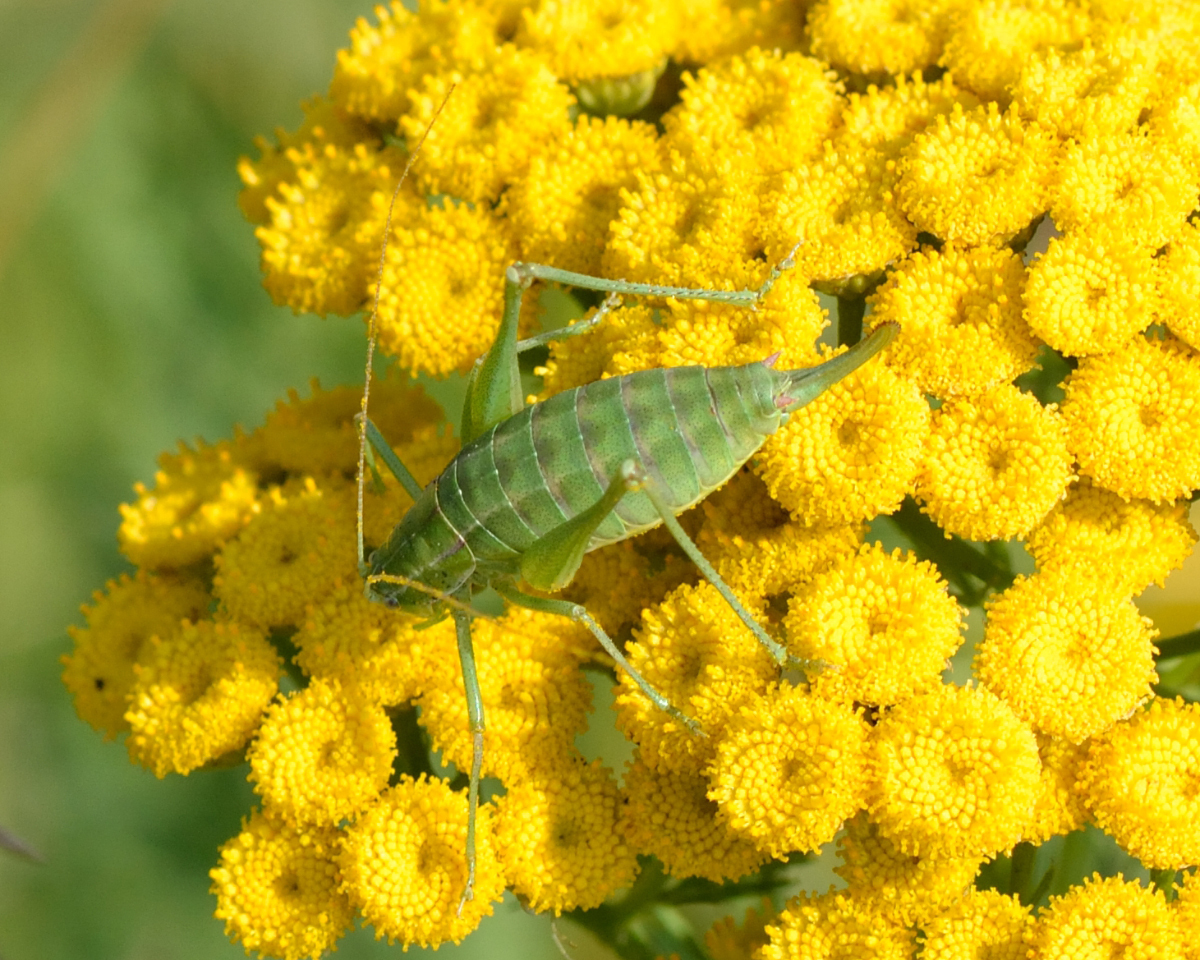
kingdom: Animalia
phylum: Arthropoda
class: Insecta
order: Orthoptera
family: Tettigoniidae
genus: Poecilimon
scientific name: Poecilimon intermedius
